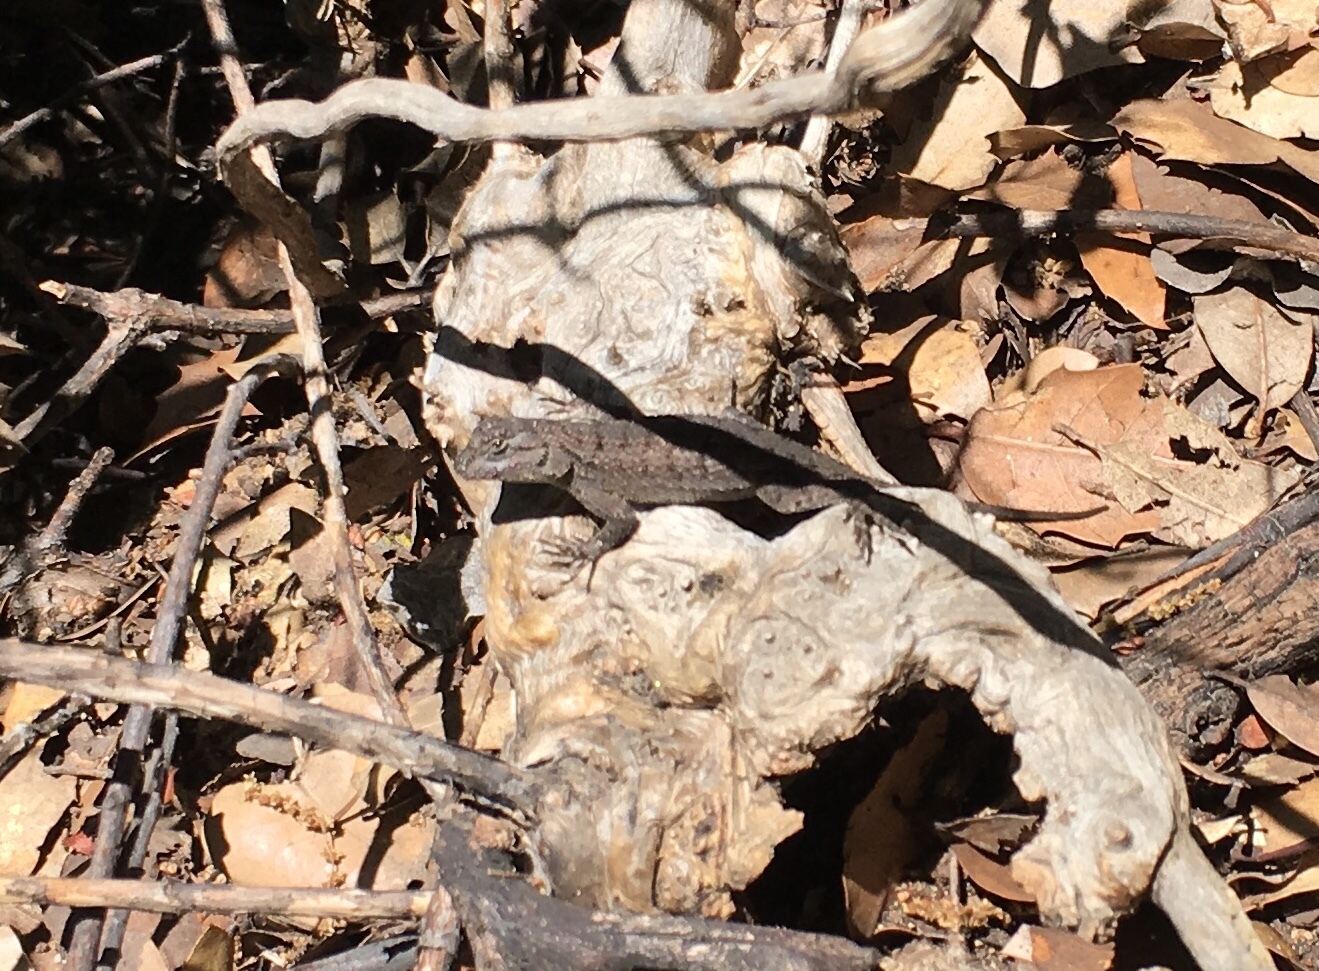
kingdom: Animalia
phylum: Chordata
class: Squamata
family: Phrynosomatidae
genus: Sceloporus
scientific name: Sceloporus occidentalis
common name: Western fence lizard
